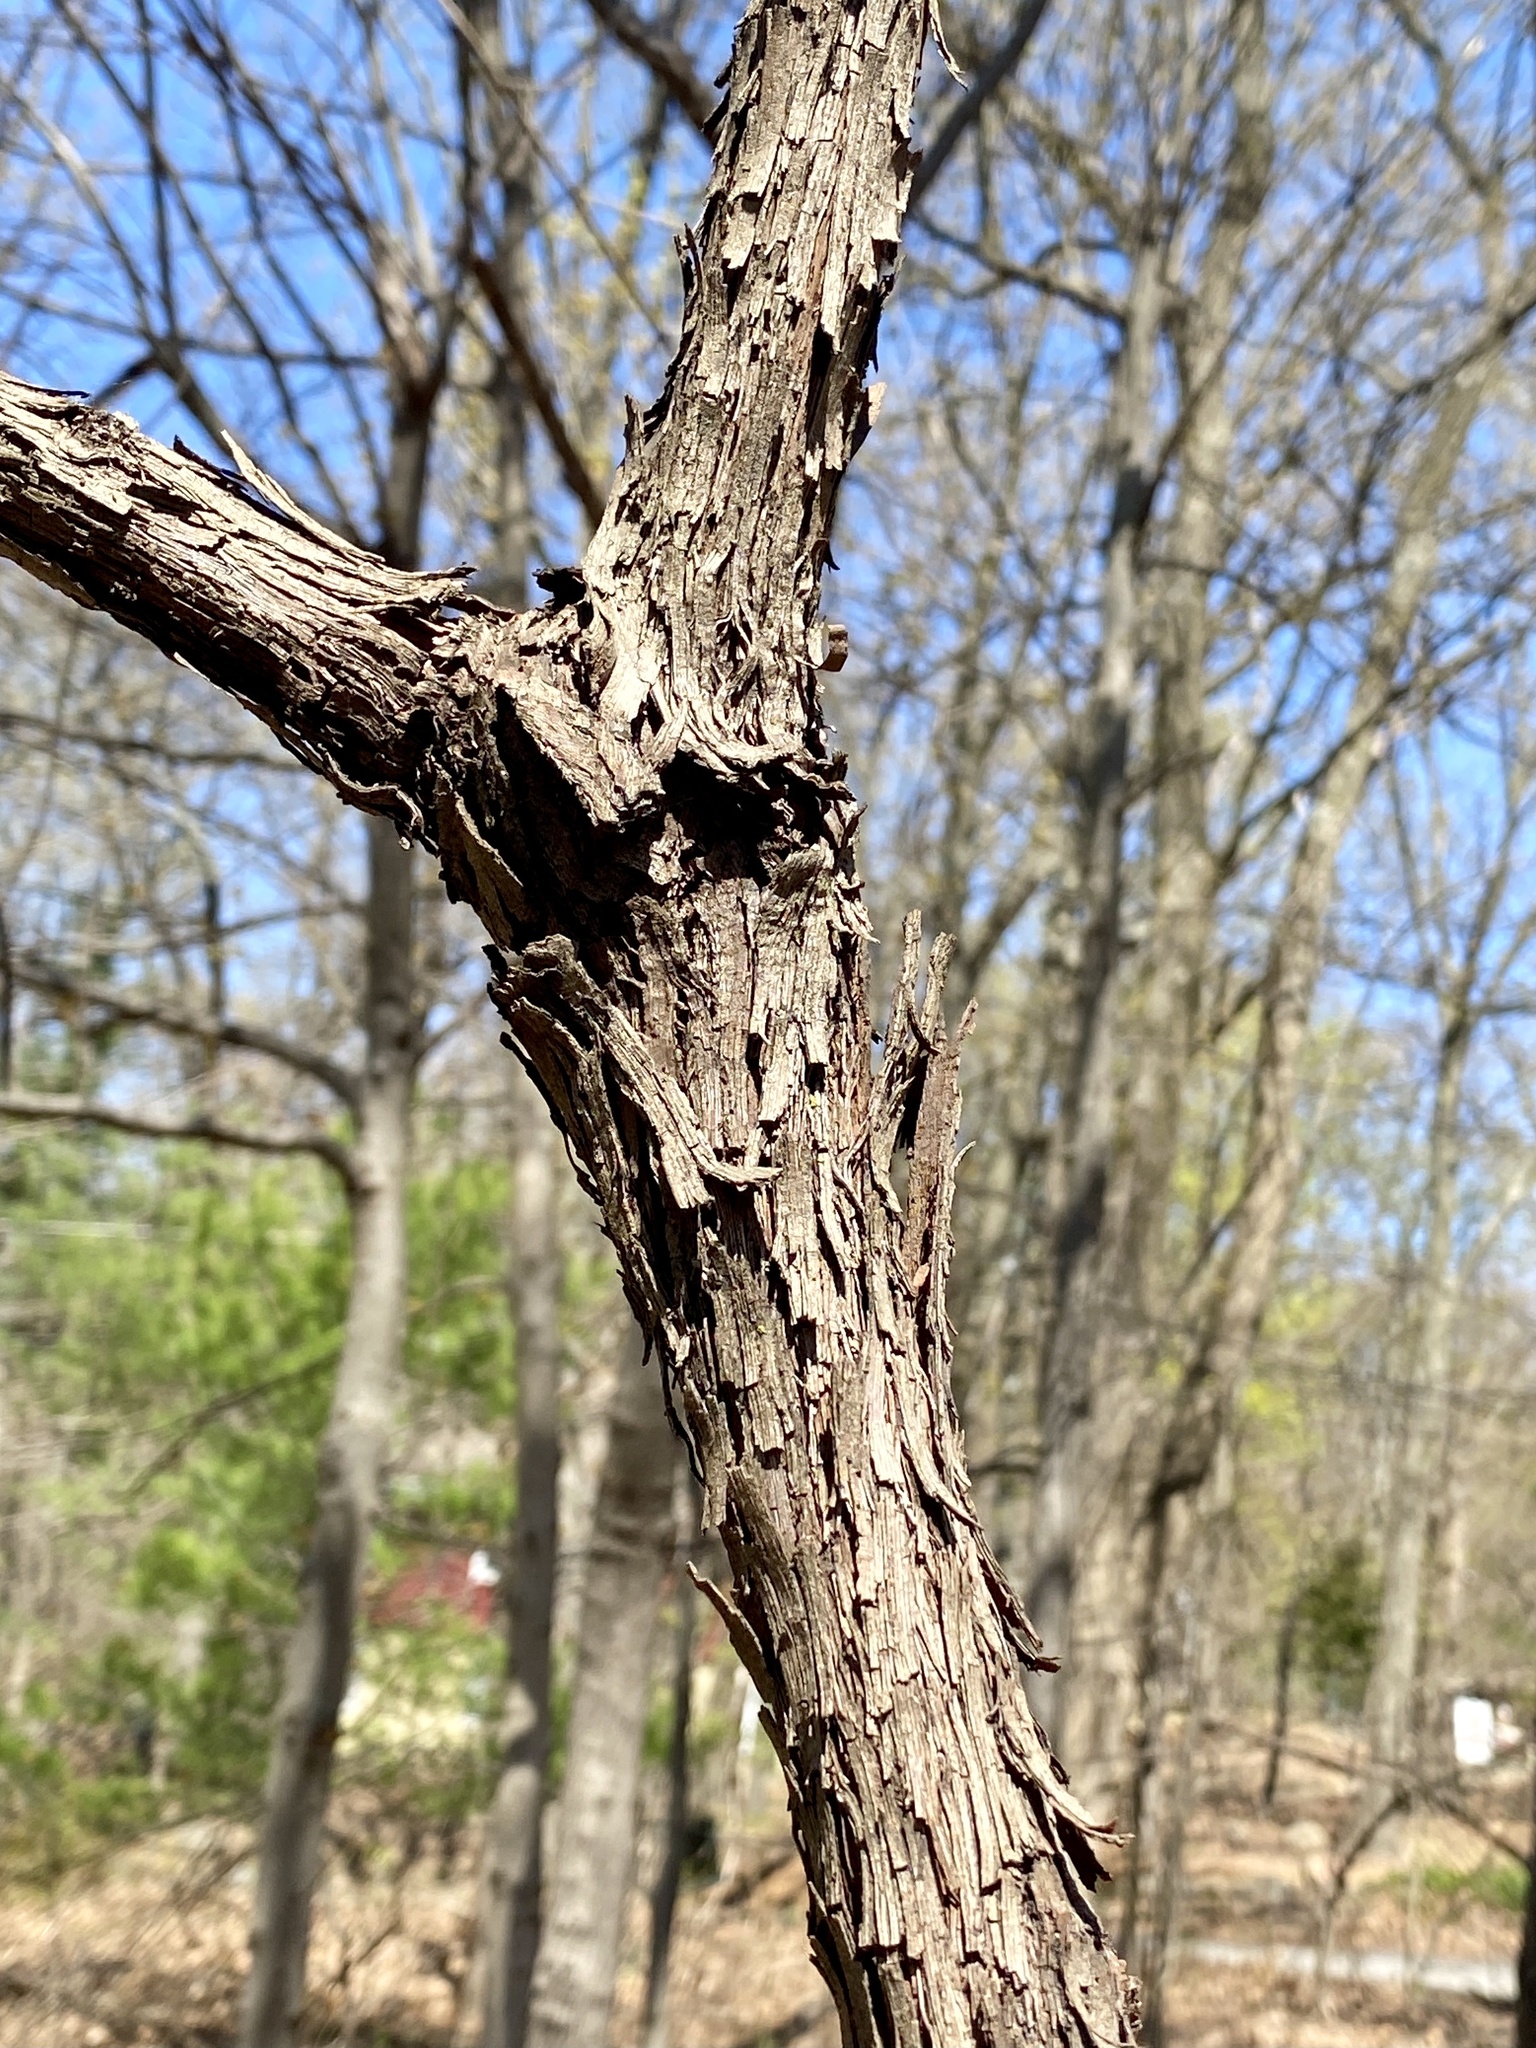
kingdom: Plantae
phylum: Tracheophyta
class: Magnoliopsida
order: Vitales
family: Vitaceae
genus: Vitis
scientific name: Vitis
